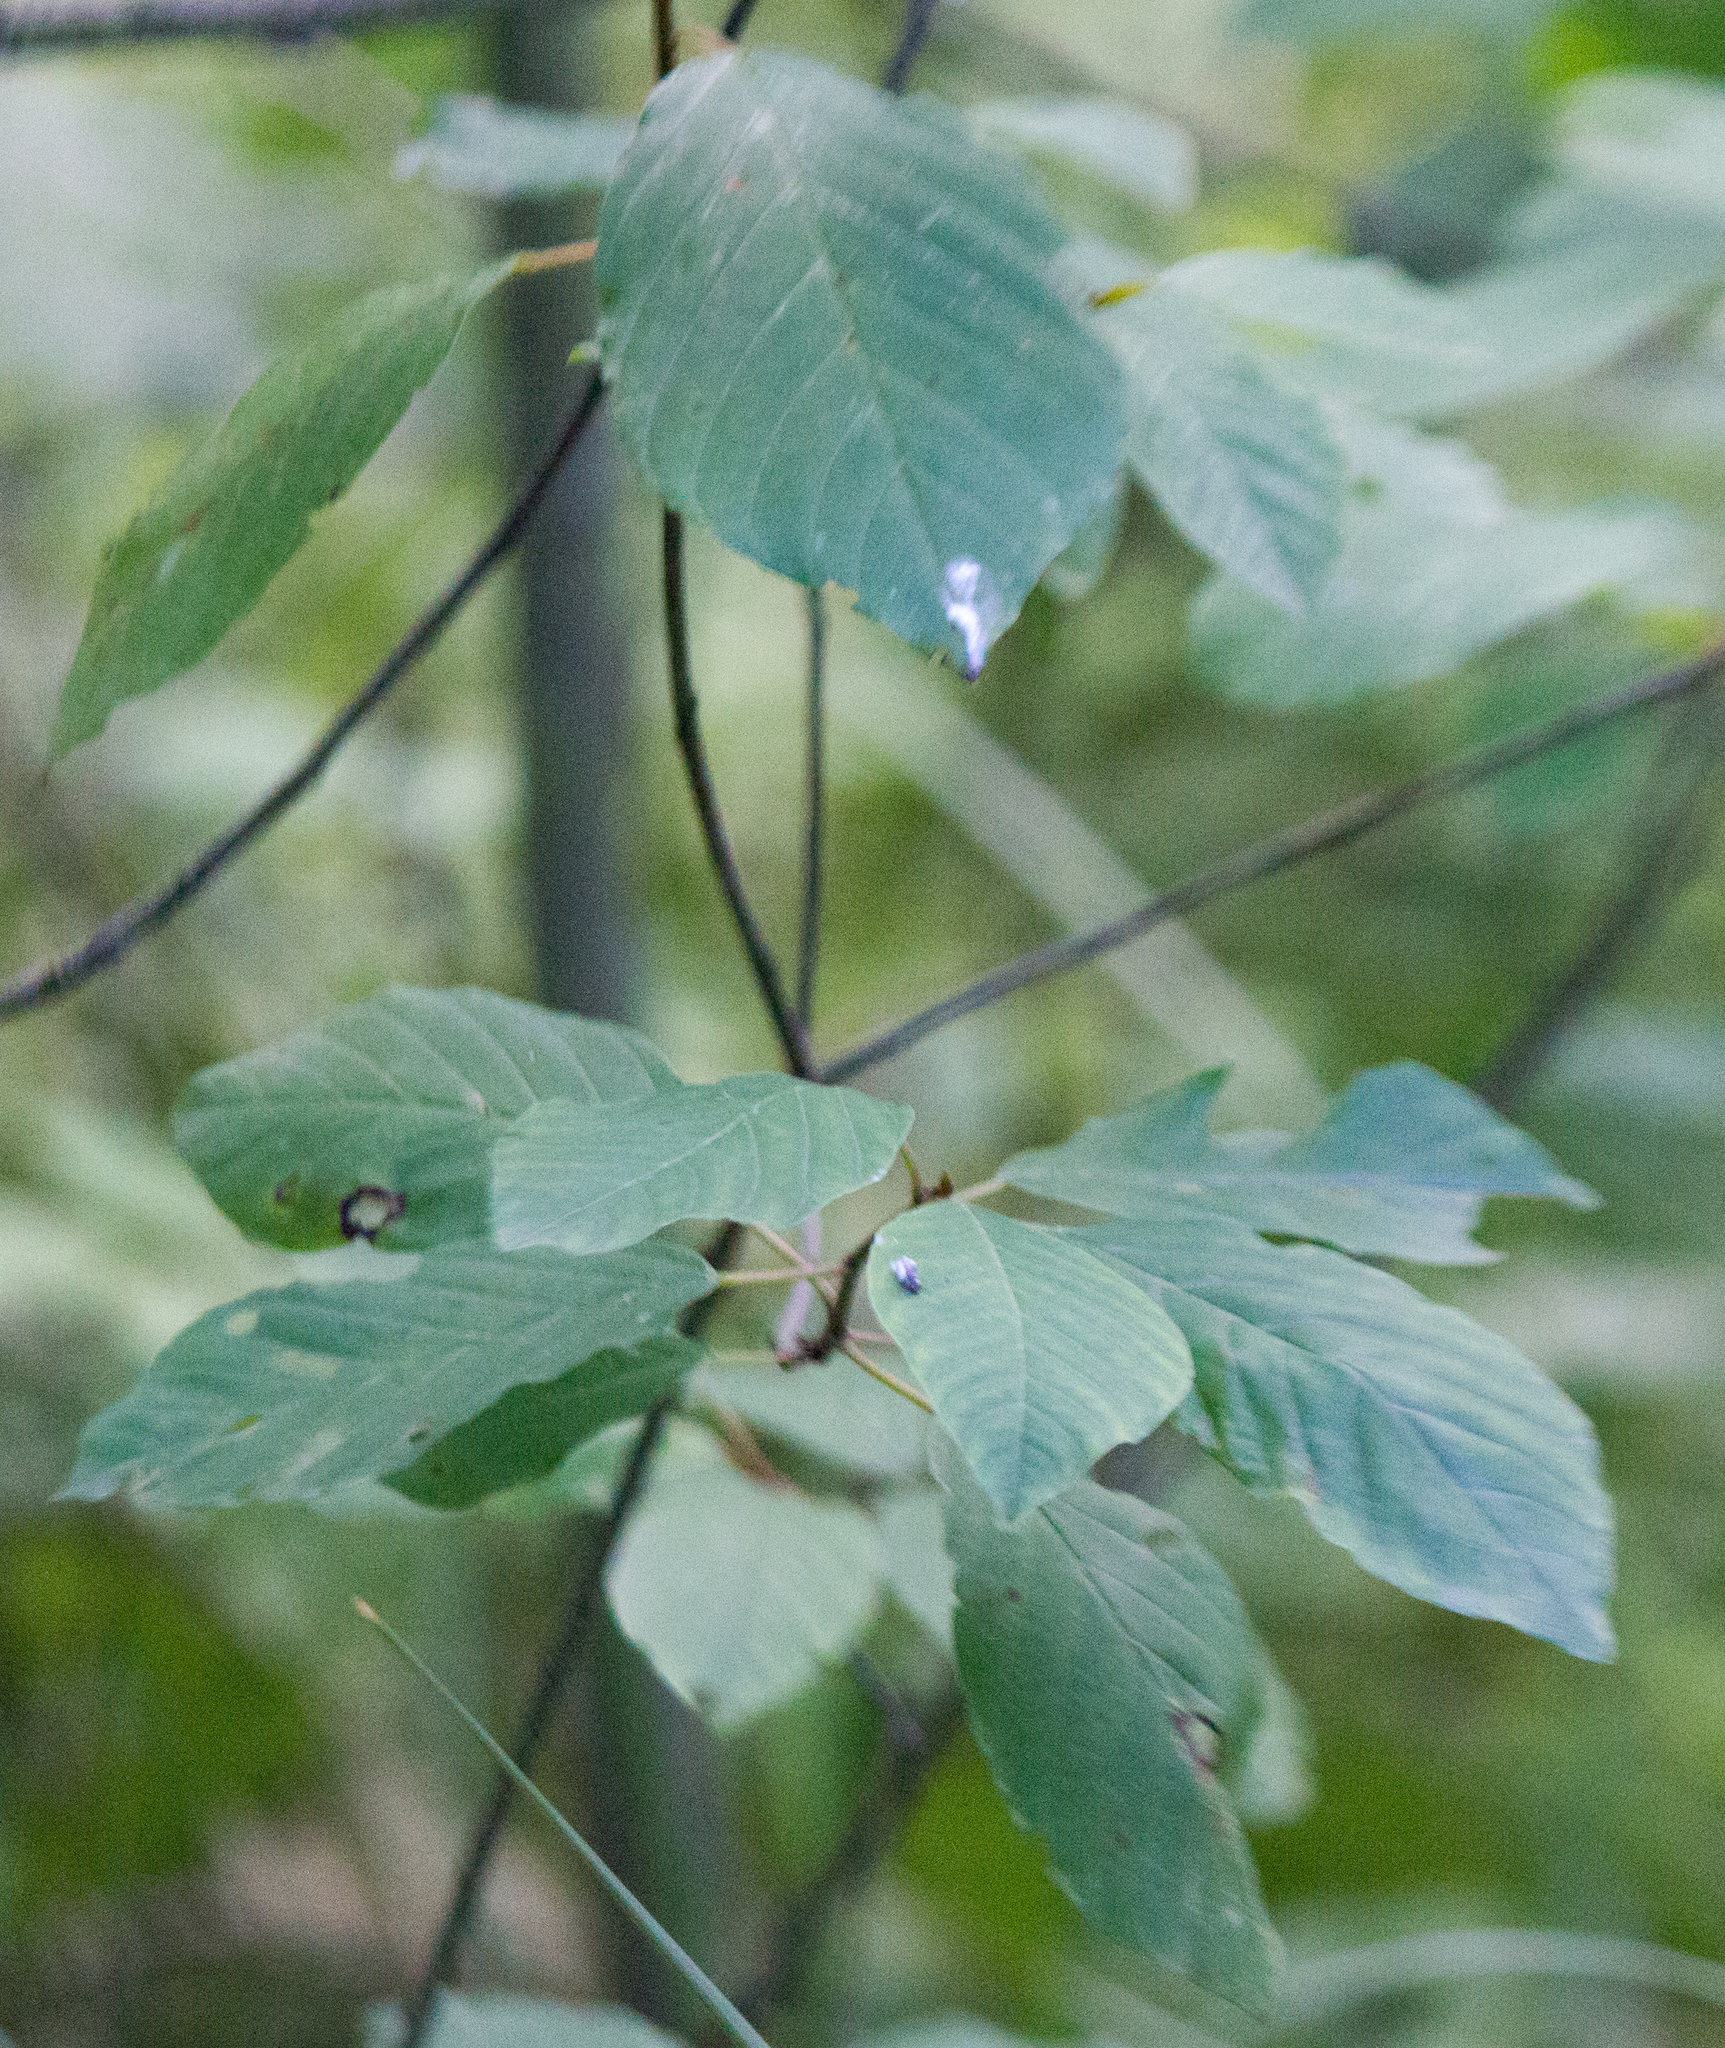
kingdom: Plantae
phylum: Tracheophyta
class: Magnoliopsida
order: Rosales
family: Rhamnaceae
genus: Frangula
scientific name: Frangula alnus
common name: Alder buckthorn
